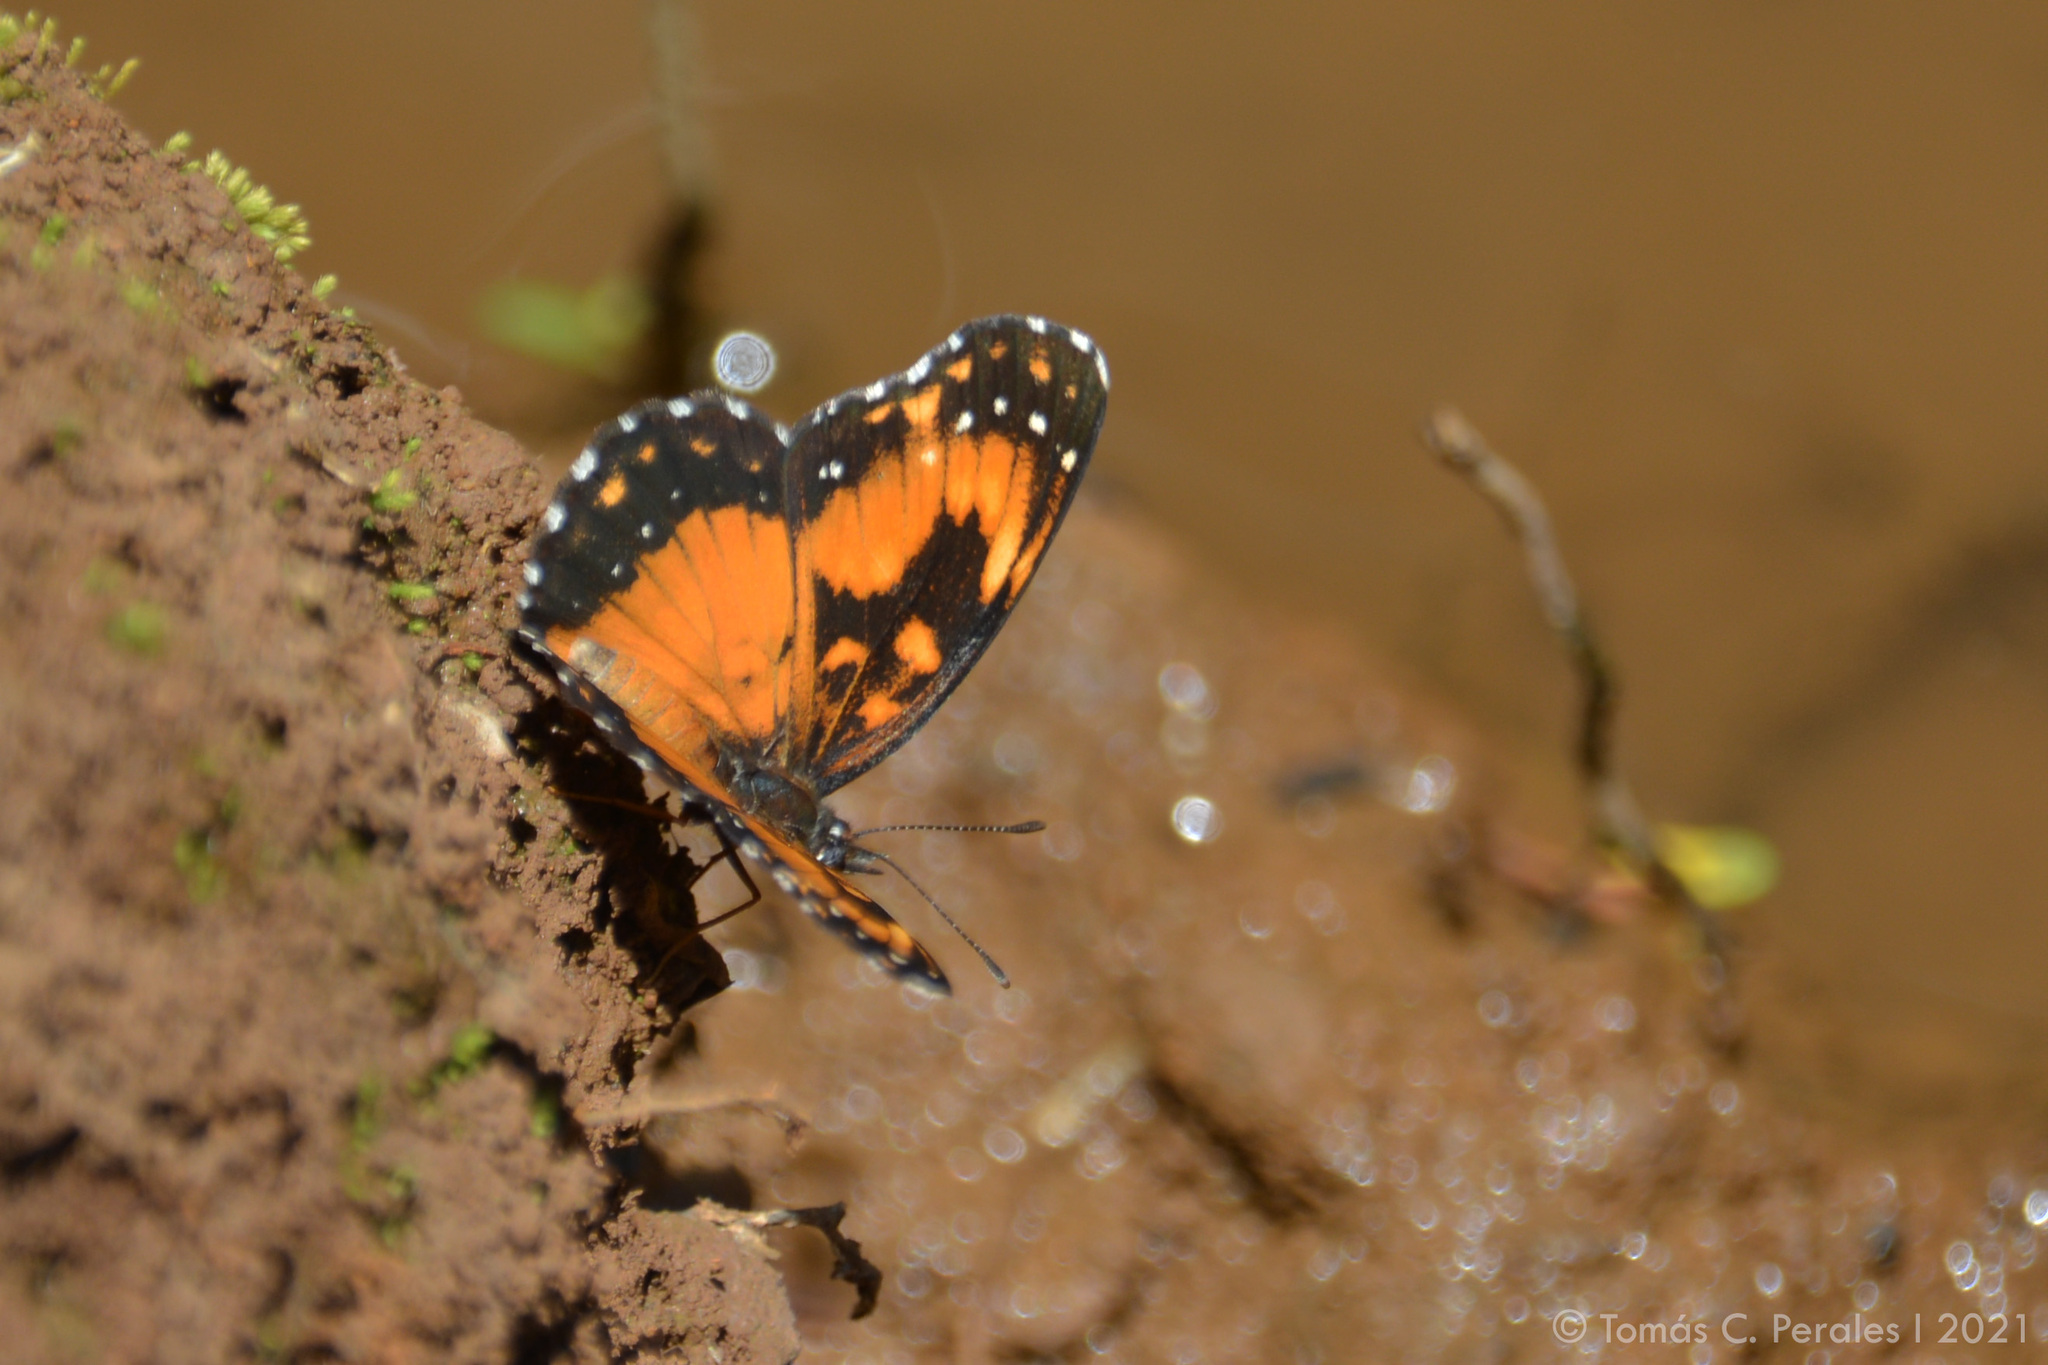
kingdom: Animalia
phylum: Arthropoda
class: Insecta
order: Lepidoptera
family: Nymphalidae
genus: Chlosyne
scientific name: Chlosyne lacinia
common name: Bordered patch
